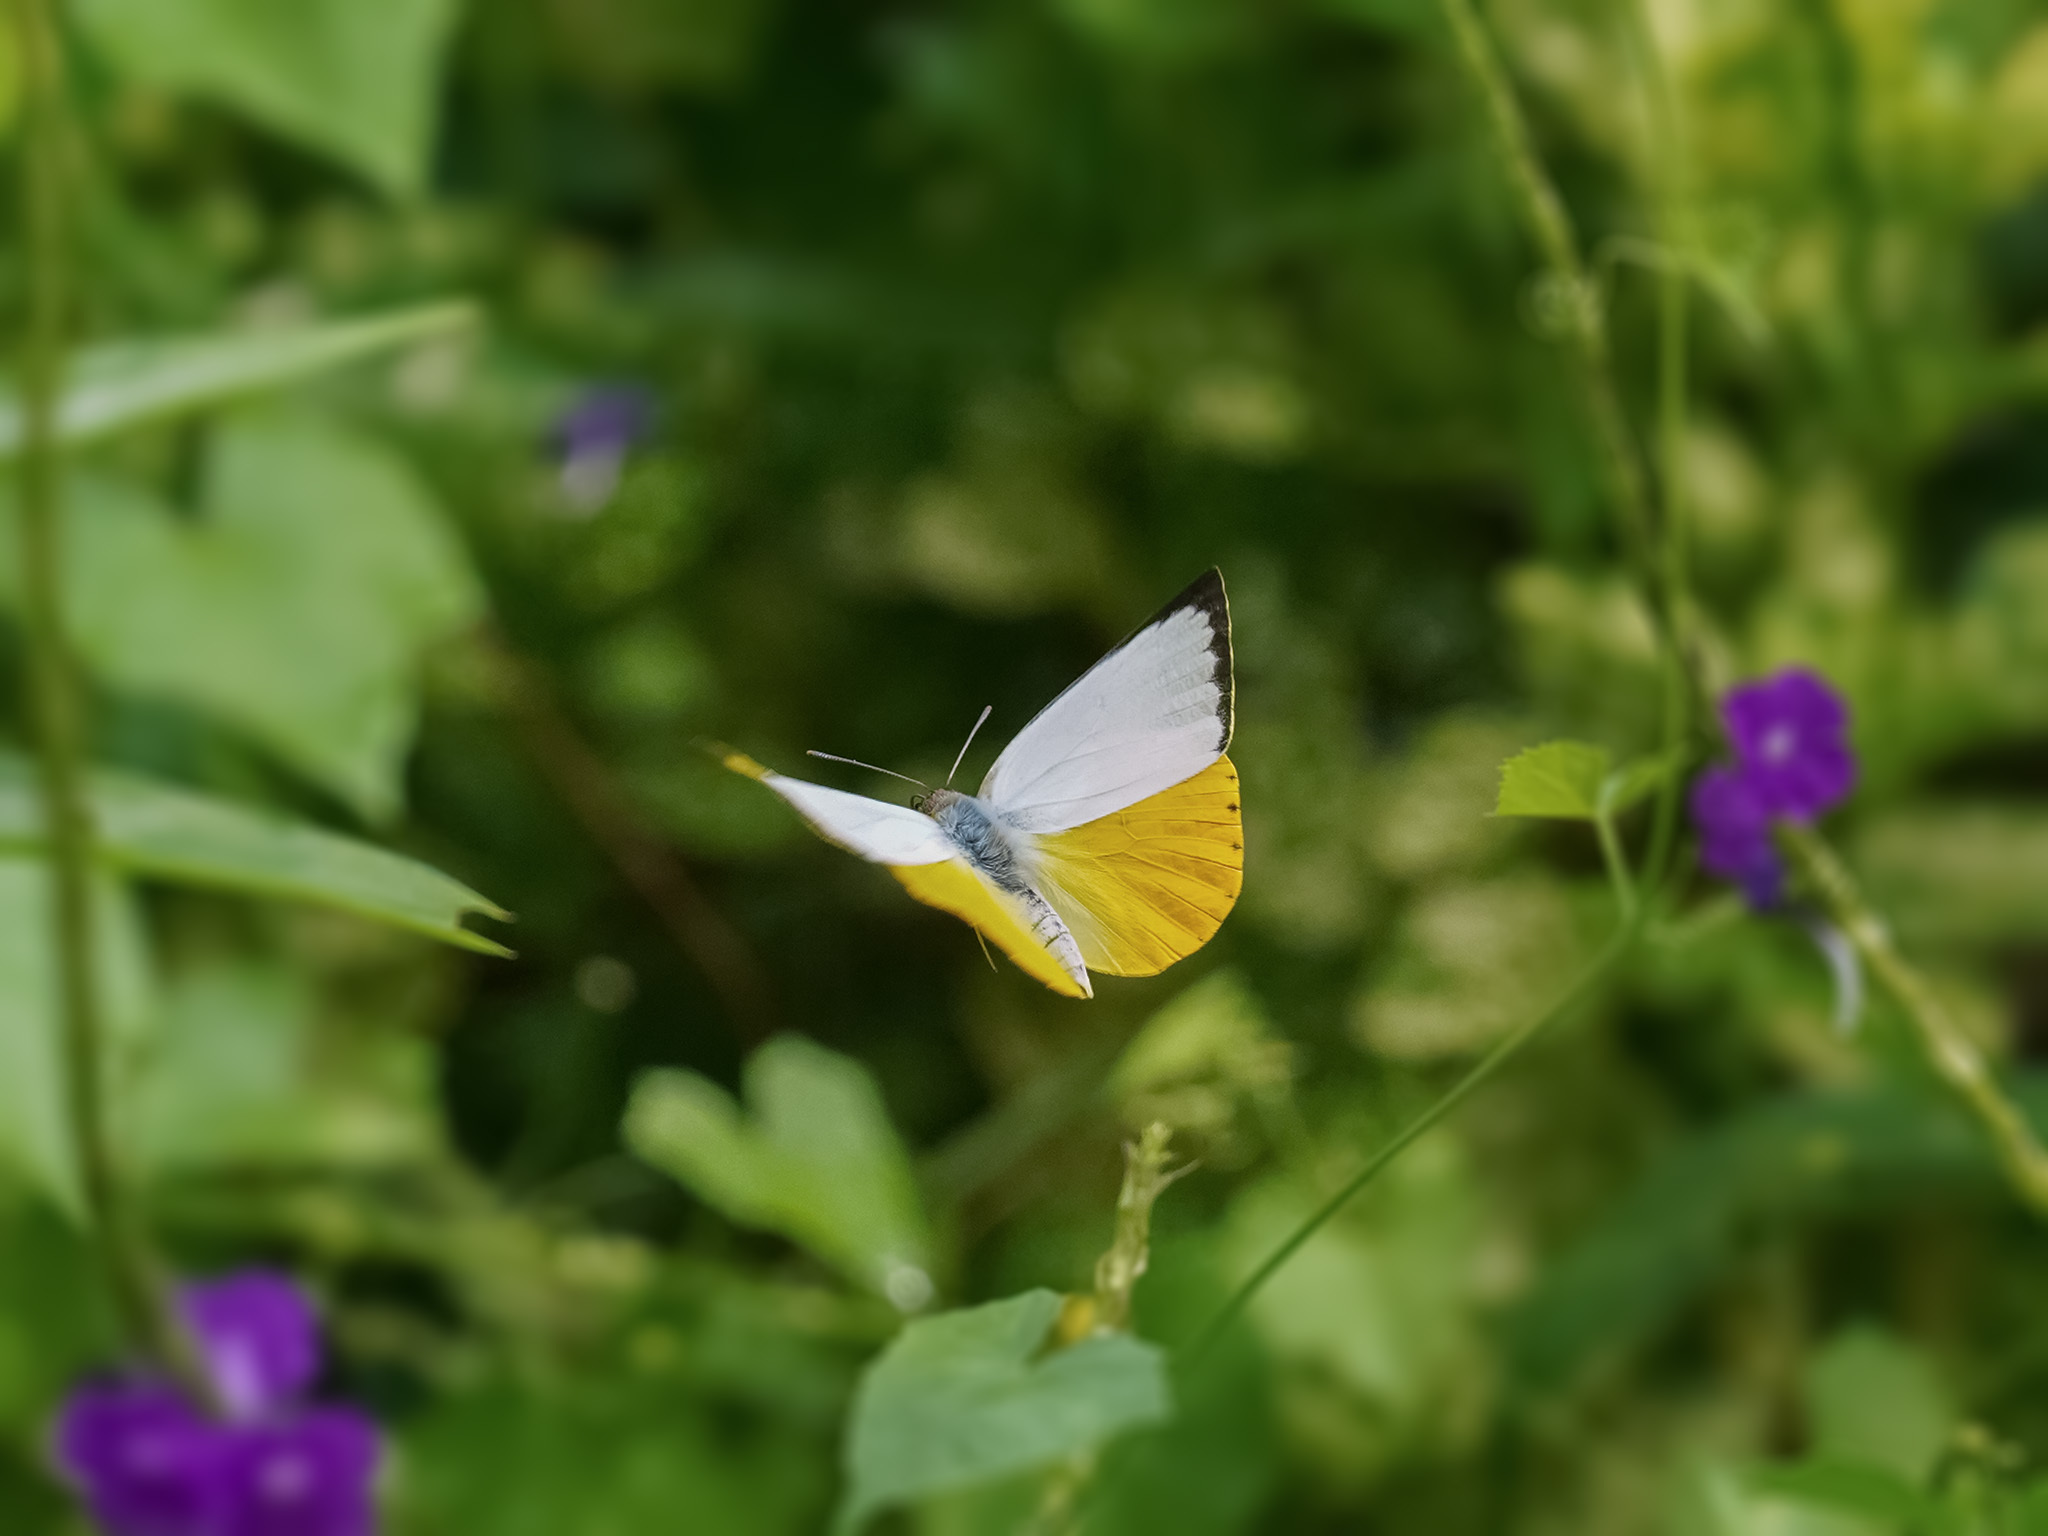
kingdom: Animalia
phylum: Arthropoda
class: Insecta
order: Lepidoptera
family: Pieridae
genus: Catopsilia
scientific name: Catopsilia scylla
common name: Orange emigrant
